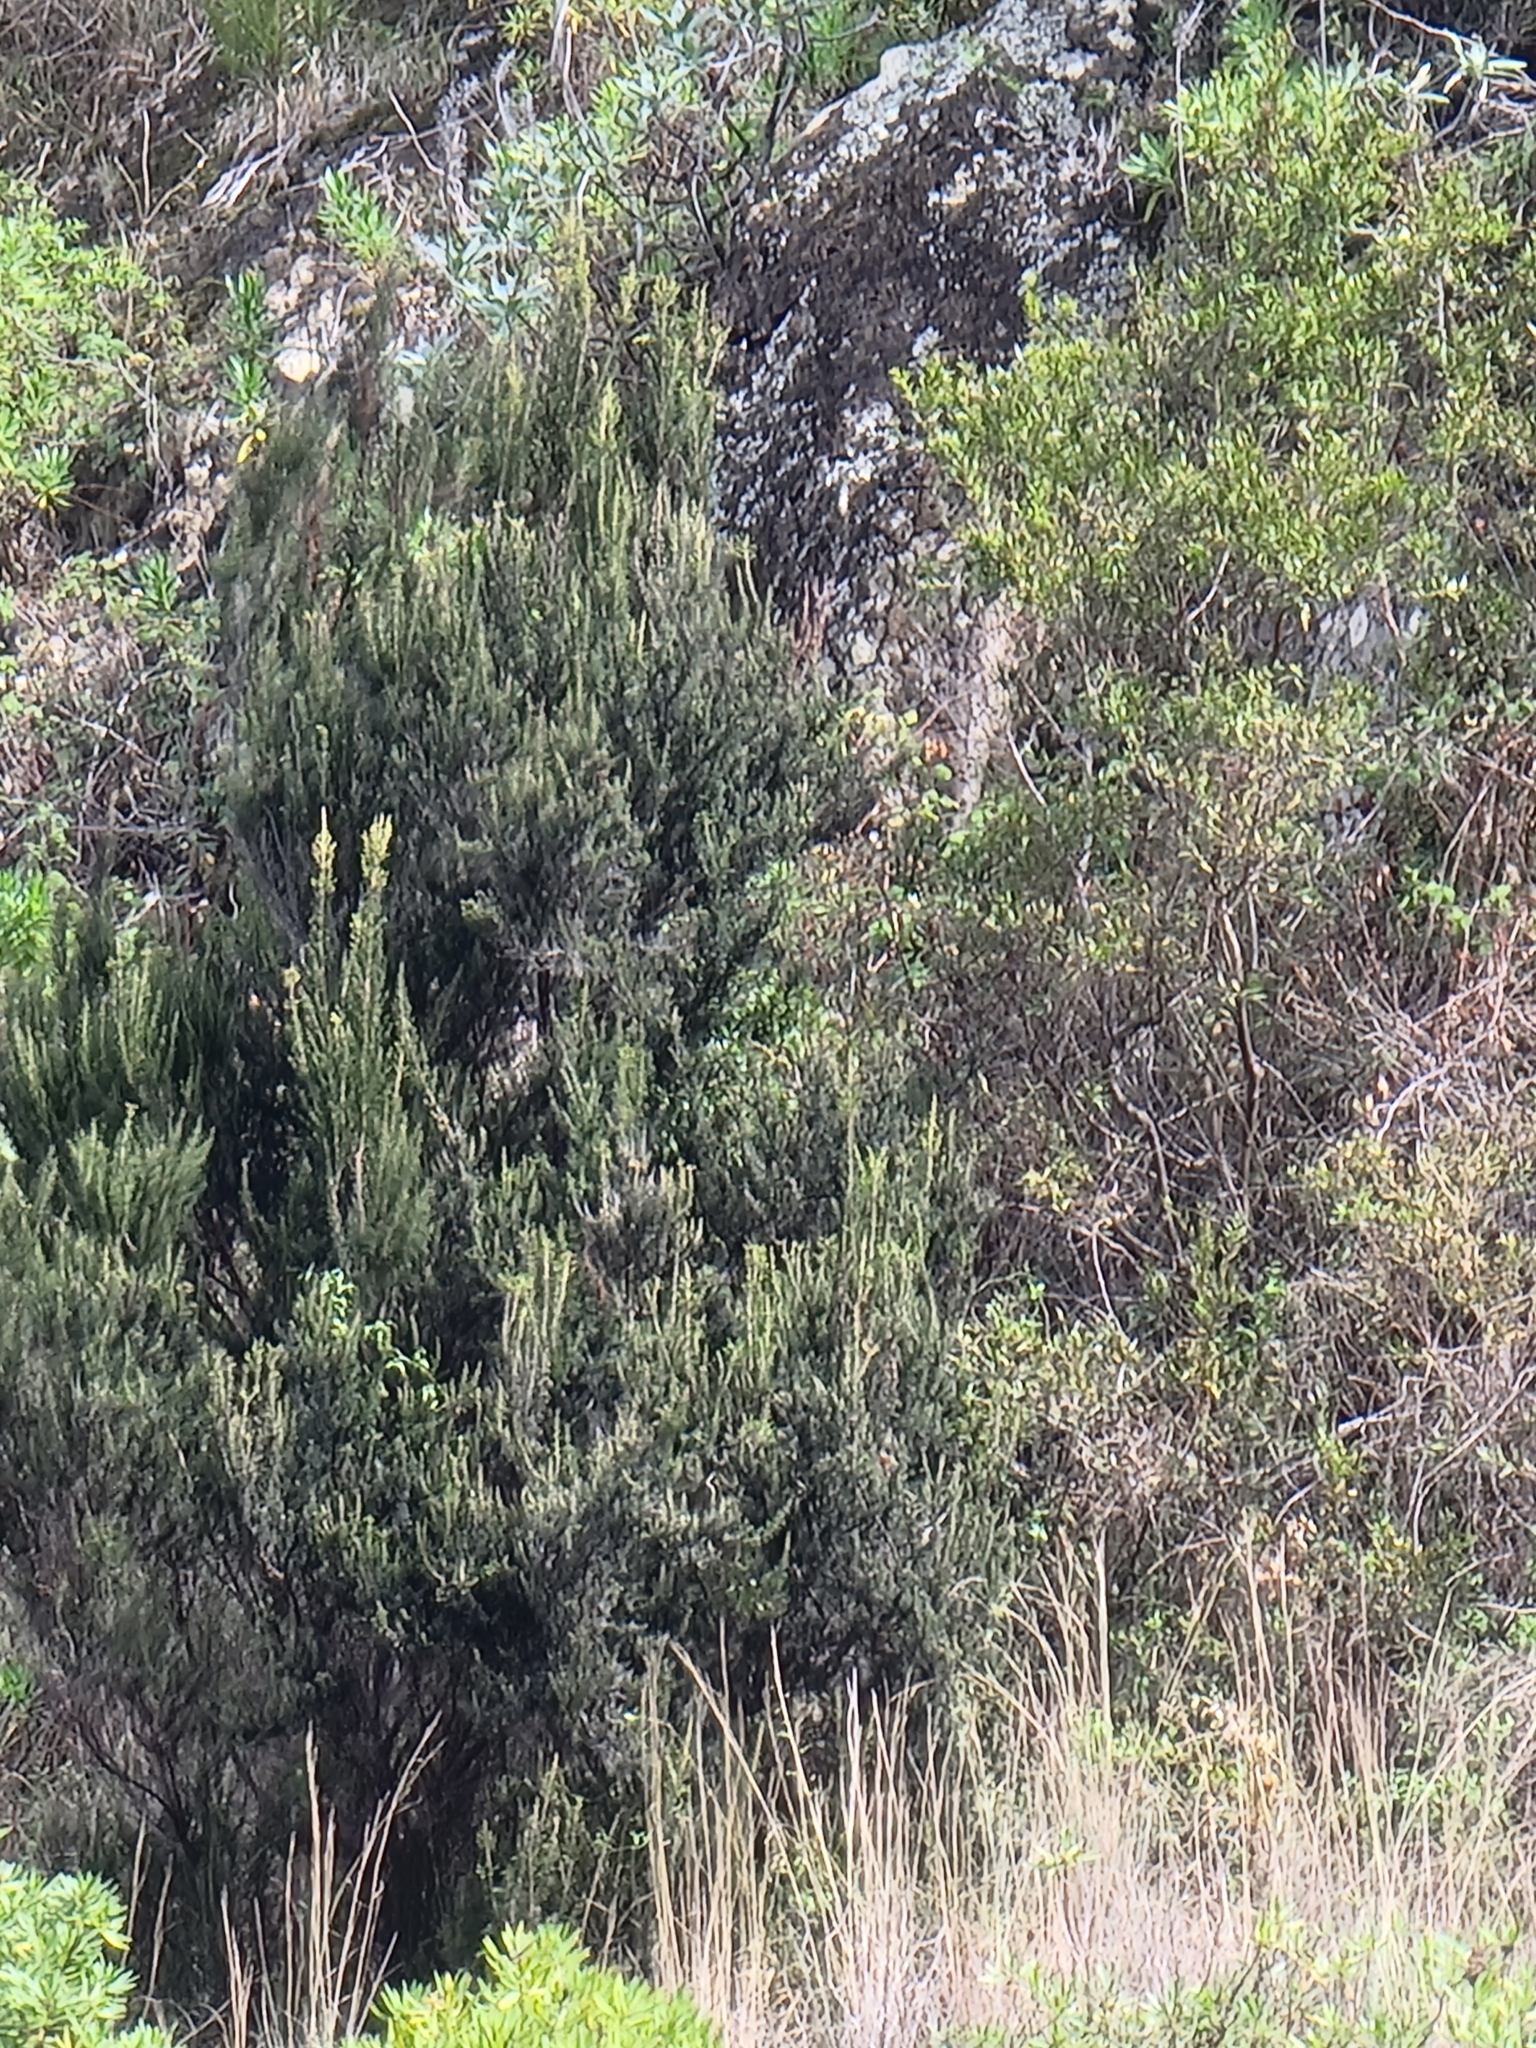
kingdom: Plantae
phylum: Tracheophyta
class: Magnoliopsida
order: Ericales
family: Ericaceae
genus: Erica
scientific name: Erica platycodon
